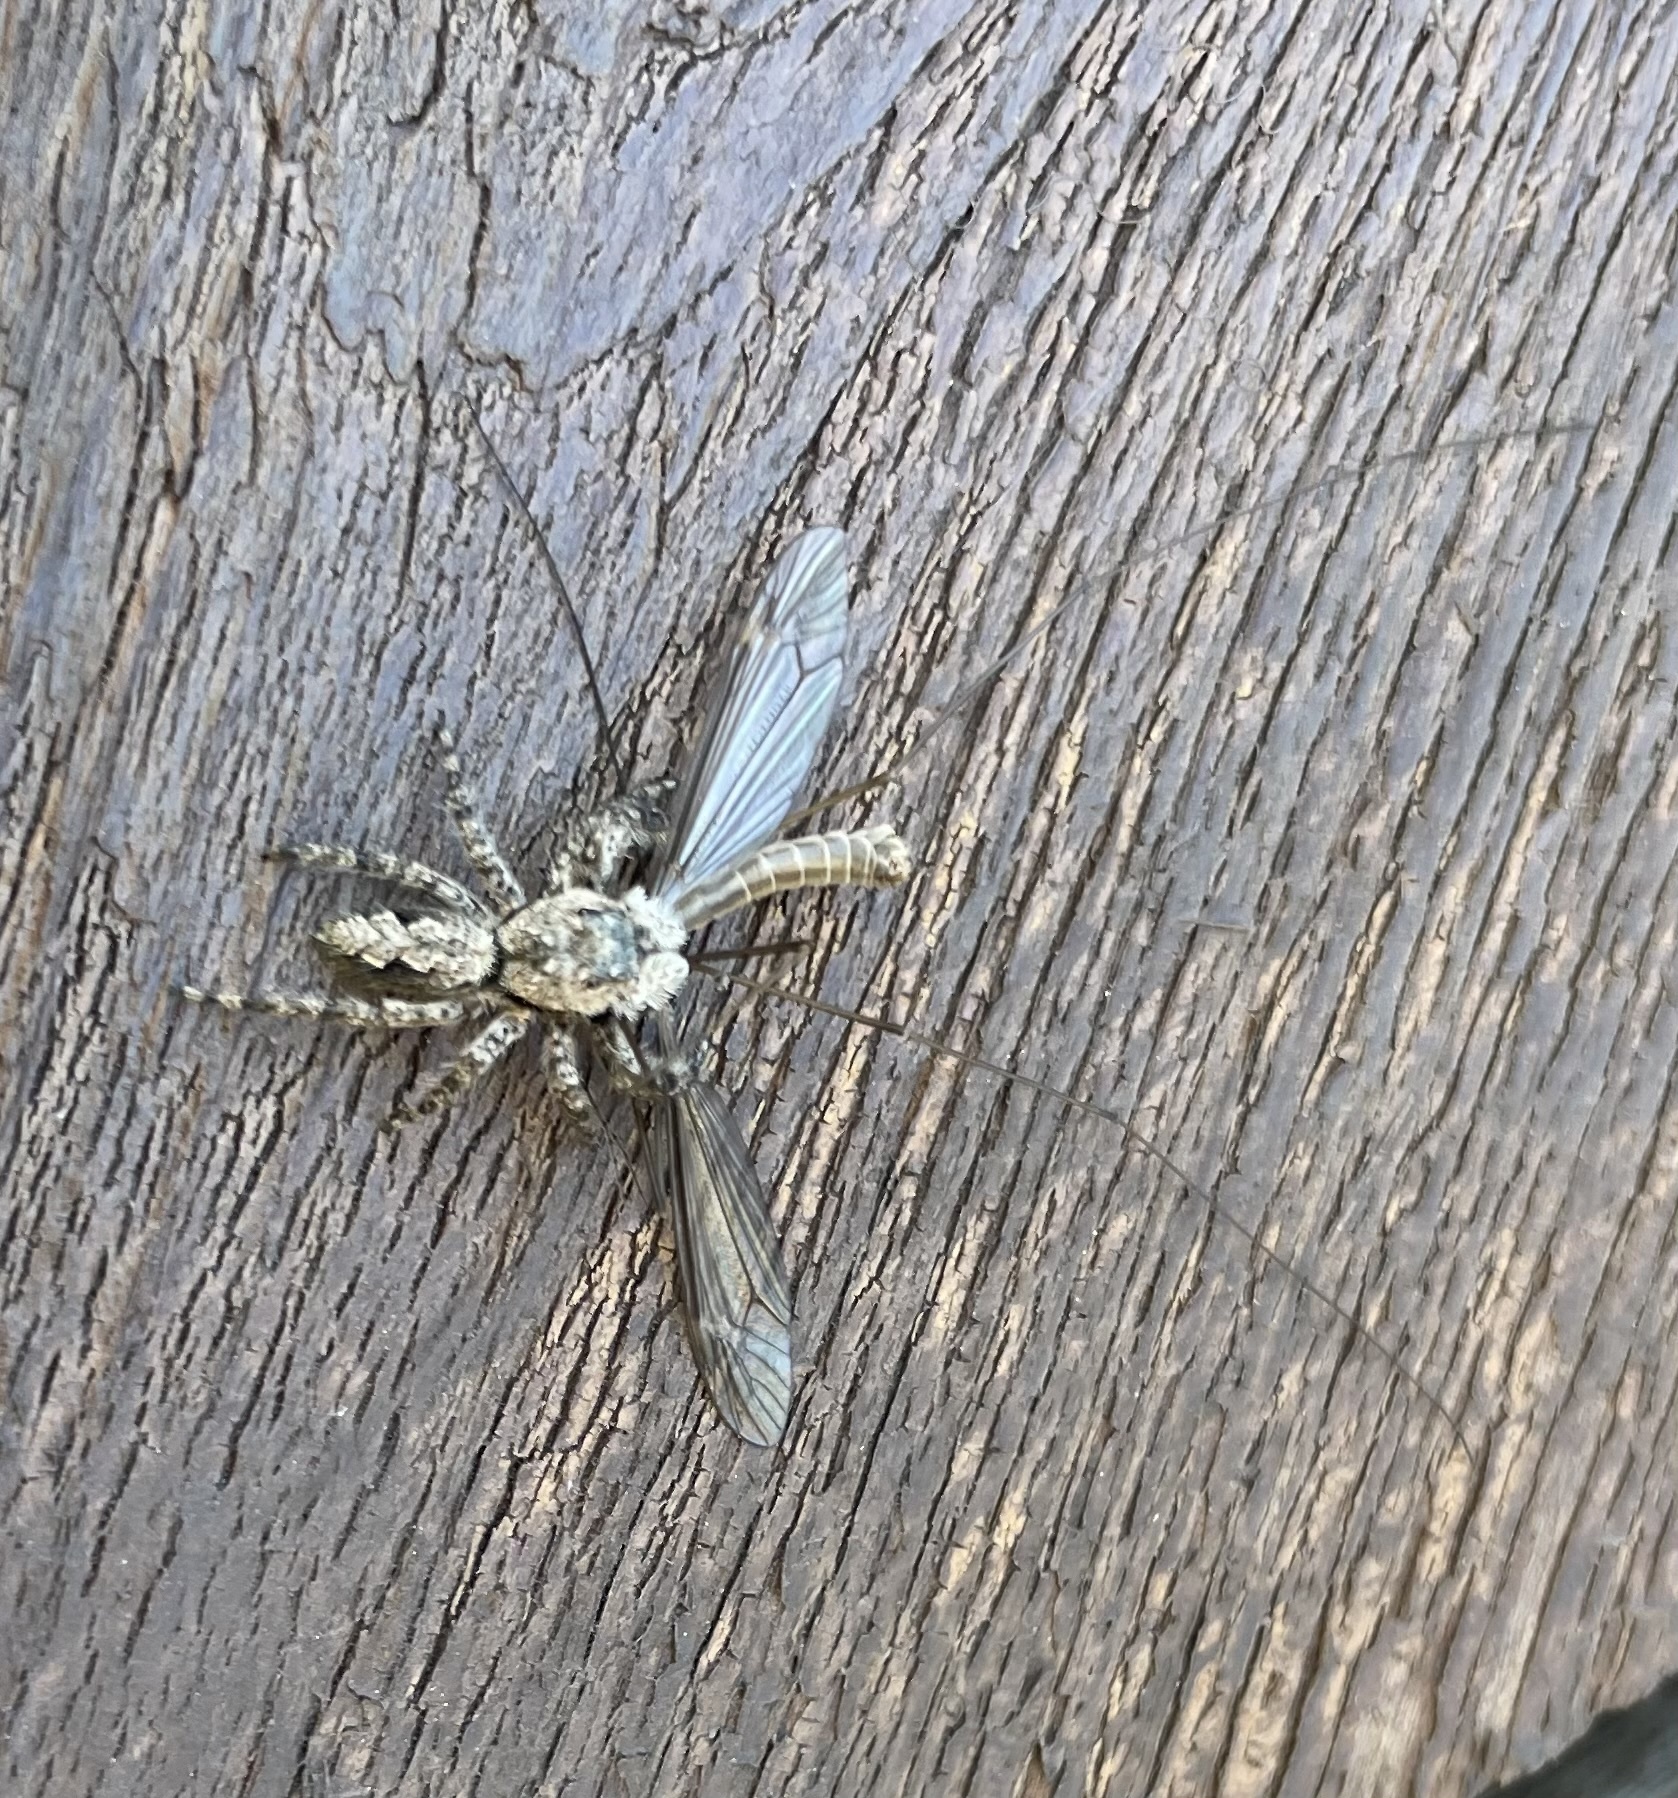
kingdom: Animalia
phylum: Arthropoda
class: Arachnida
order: Araneae
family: Salticidae
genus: Platycryptus
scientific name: Platycryptus undatus
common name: Tan jumping spider
